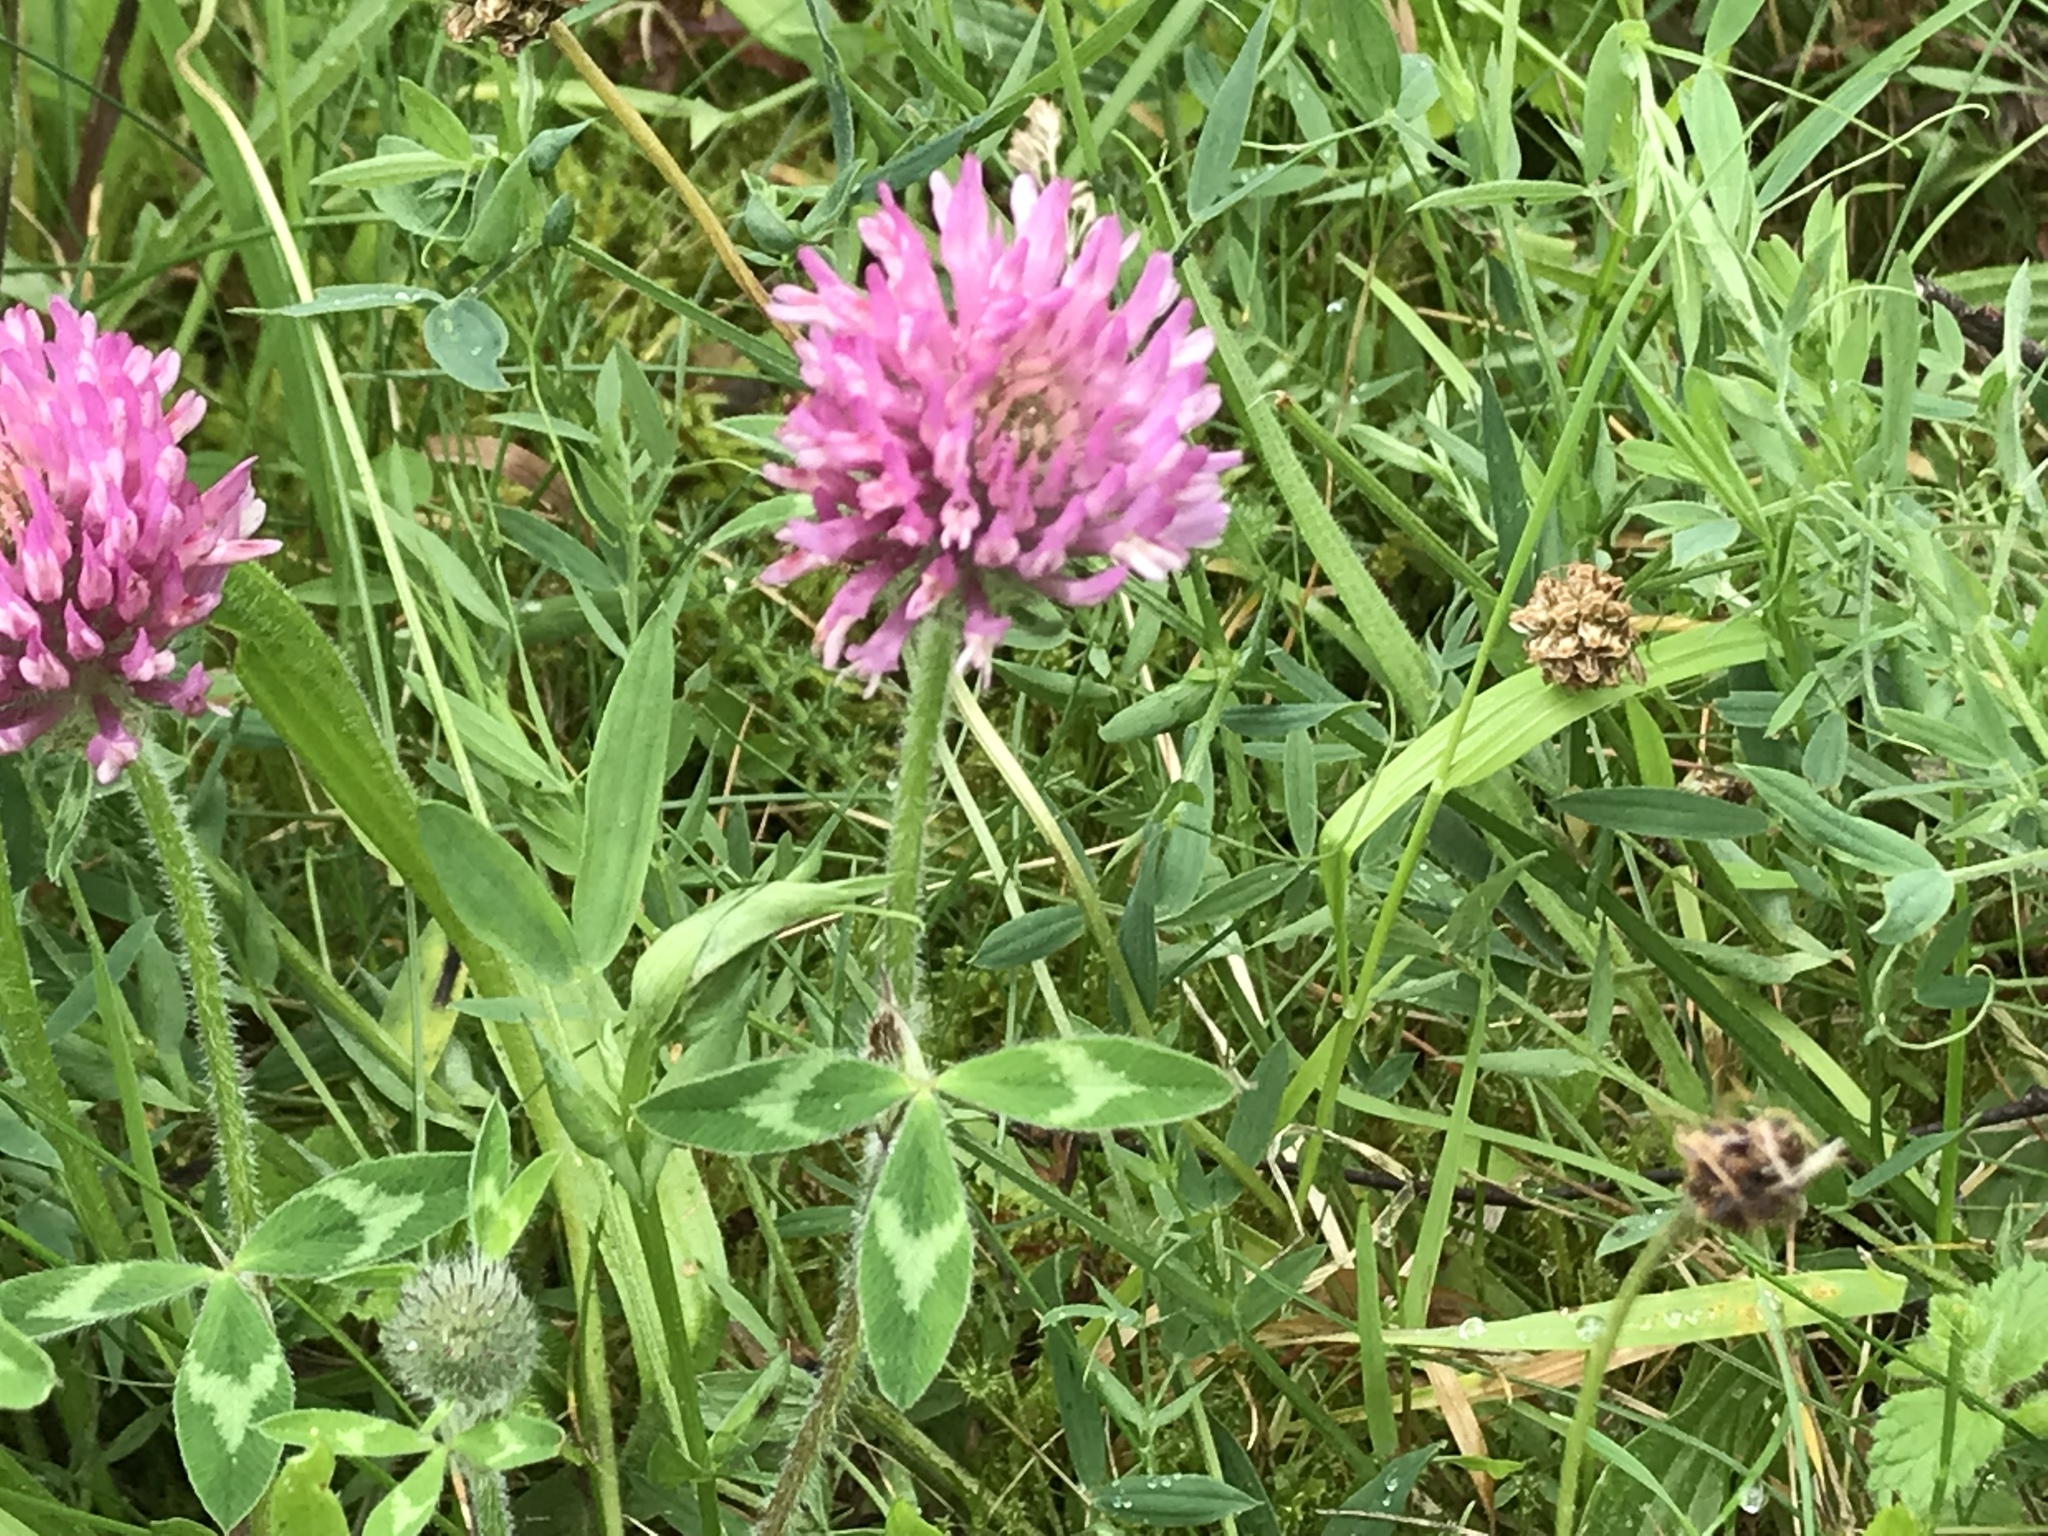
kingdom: Plantae
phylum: Tracheophyta
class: Magnoliopsida
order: Fabales
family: Fabaceae
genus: Trifolium
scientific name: Trifolium pratense
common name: Red clover
